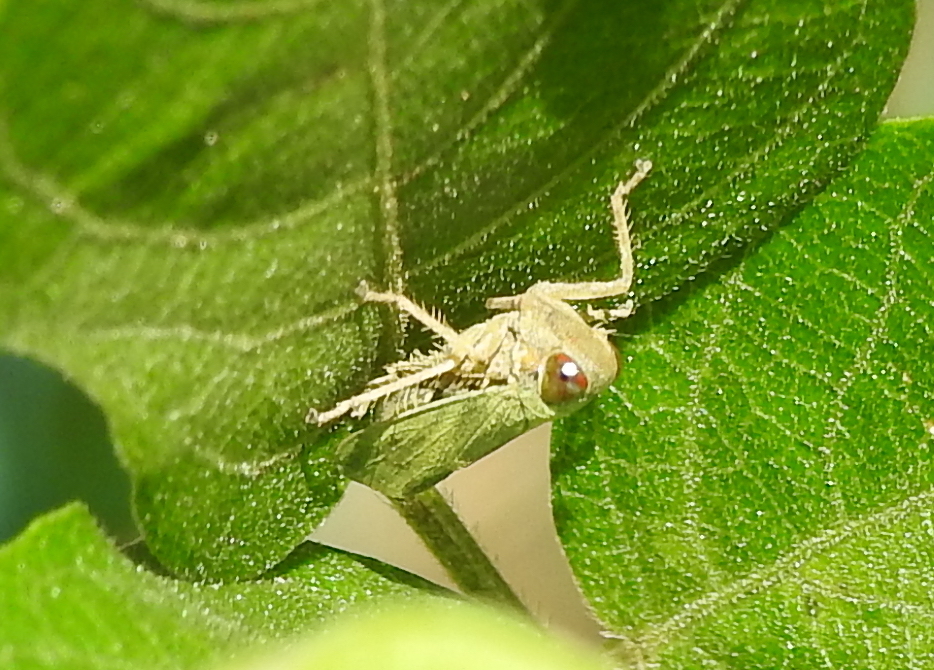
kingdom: Animalia
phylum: Arthropoda
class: Insecta
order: Lepidoptera
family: Nymphalidae
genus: Ypthima
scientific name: Ypthima huebneri
